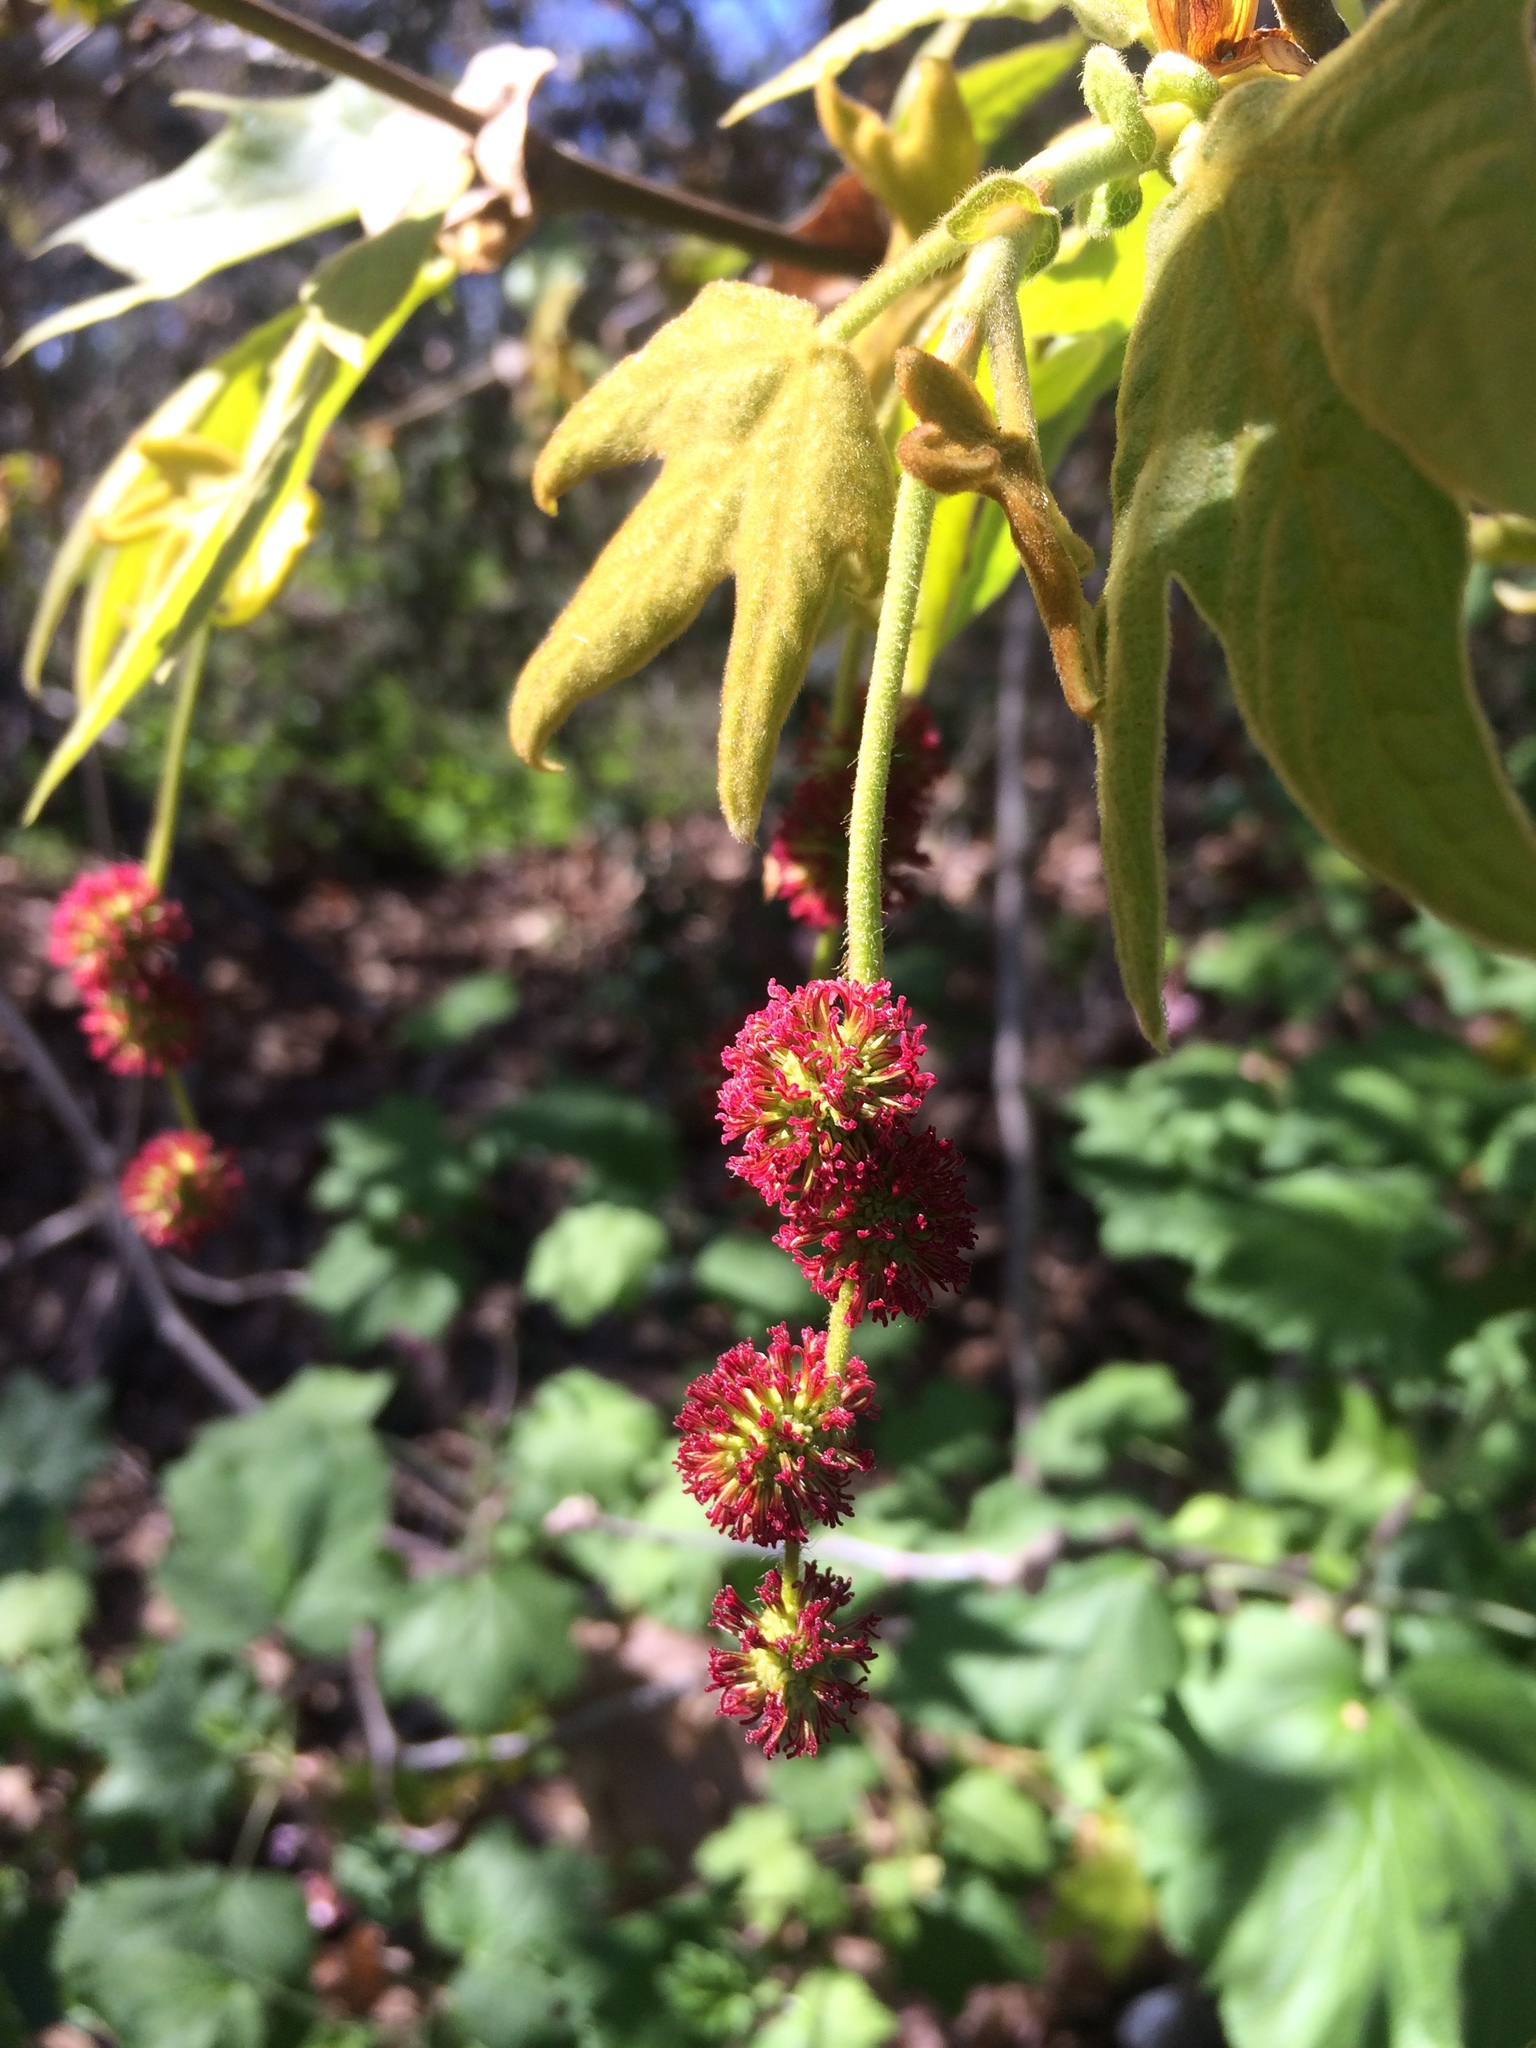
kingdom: Plantae
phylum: Tracheophyta
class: Magnoliopsida
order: Proteales
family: Platanaceae
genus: Platanus
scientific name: Platanus racemosa
